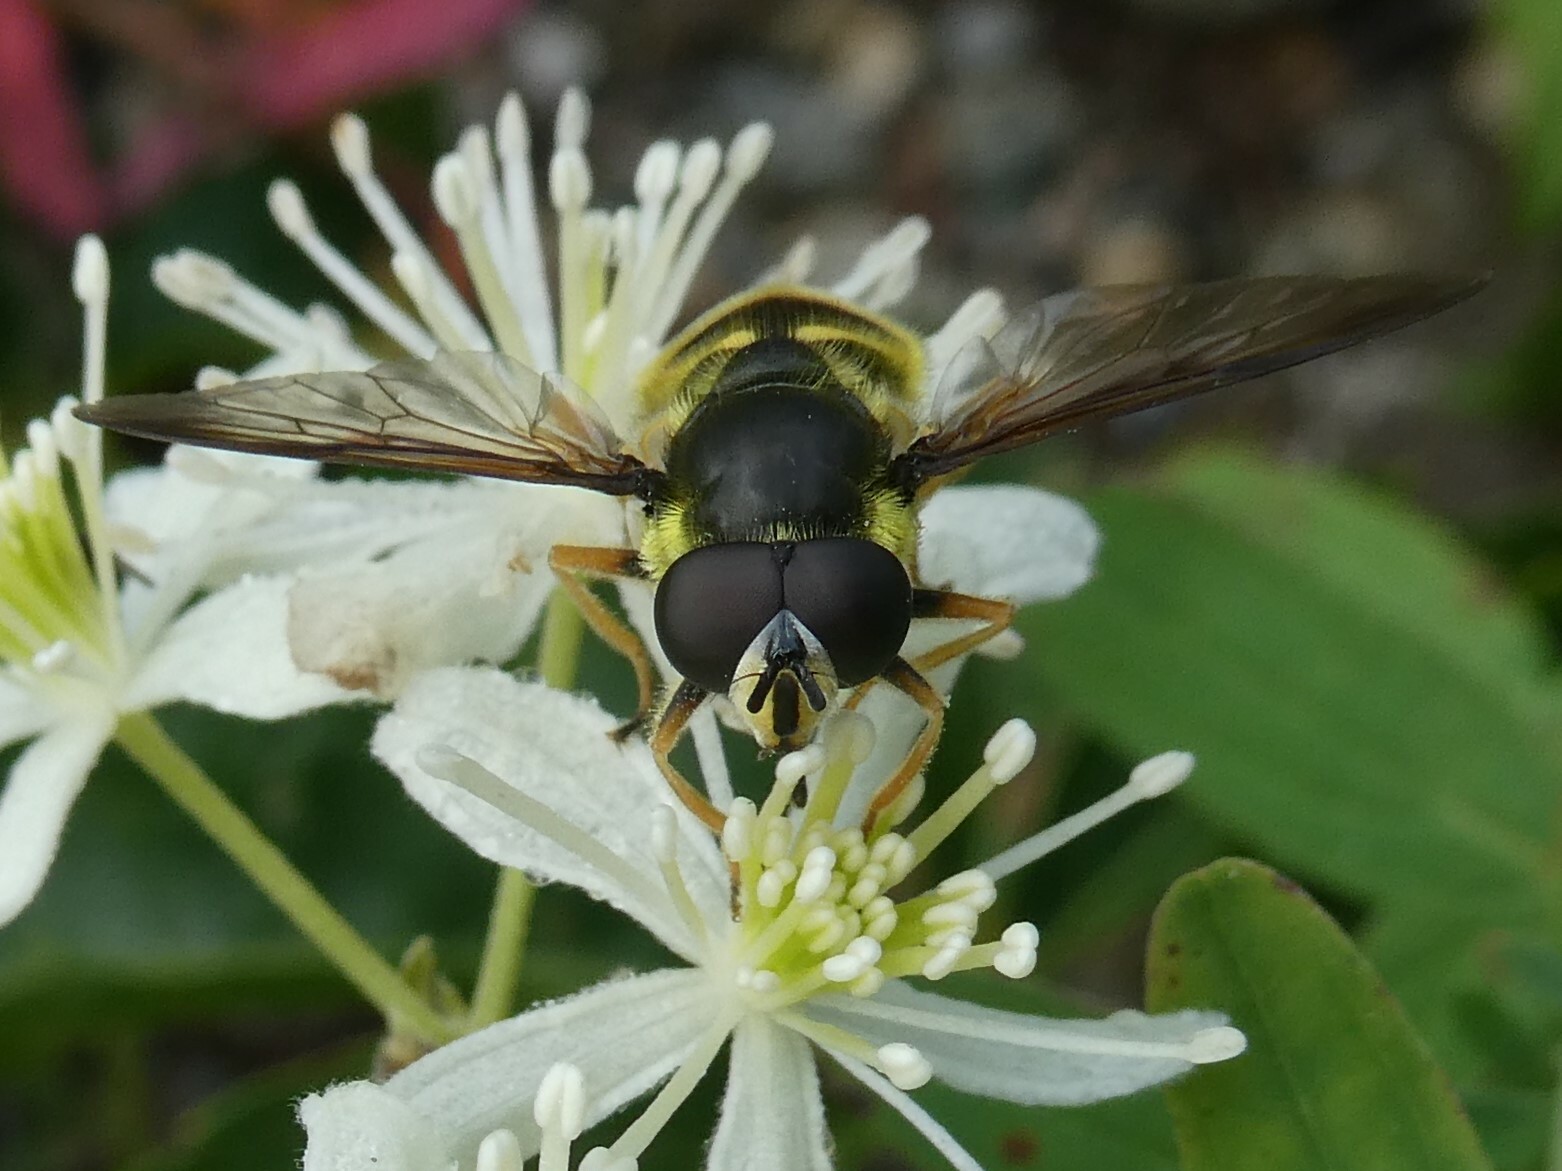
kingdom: Animalia
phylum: Arthropoda
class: Insecta
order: Diptera
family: Syrphidae
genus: Sericomyia
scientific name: Sericomyia chrysotoxoides
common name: Oblique-banded pond fly
